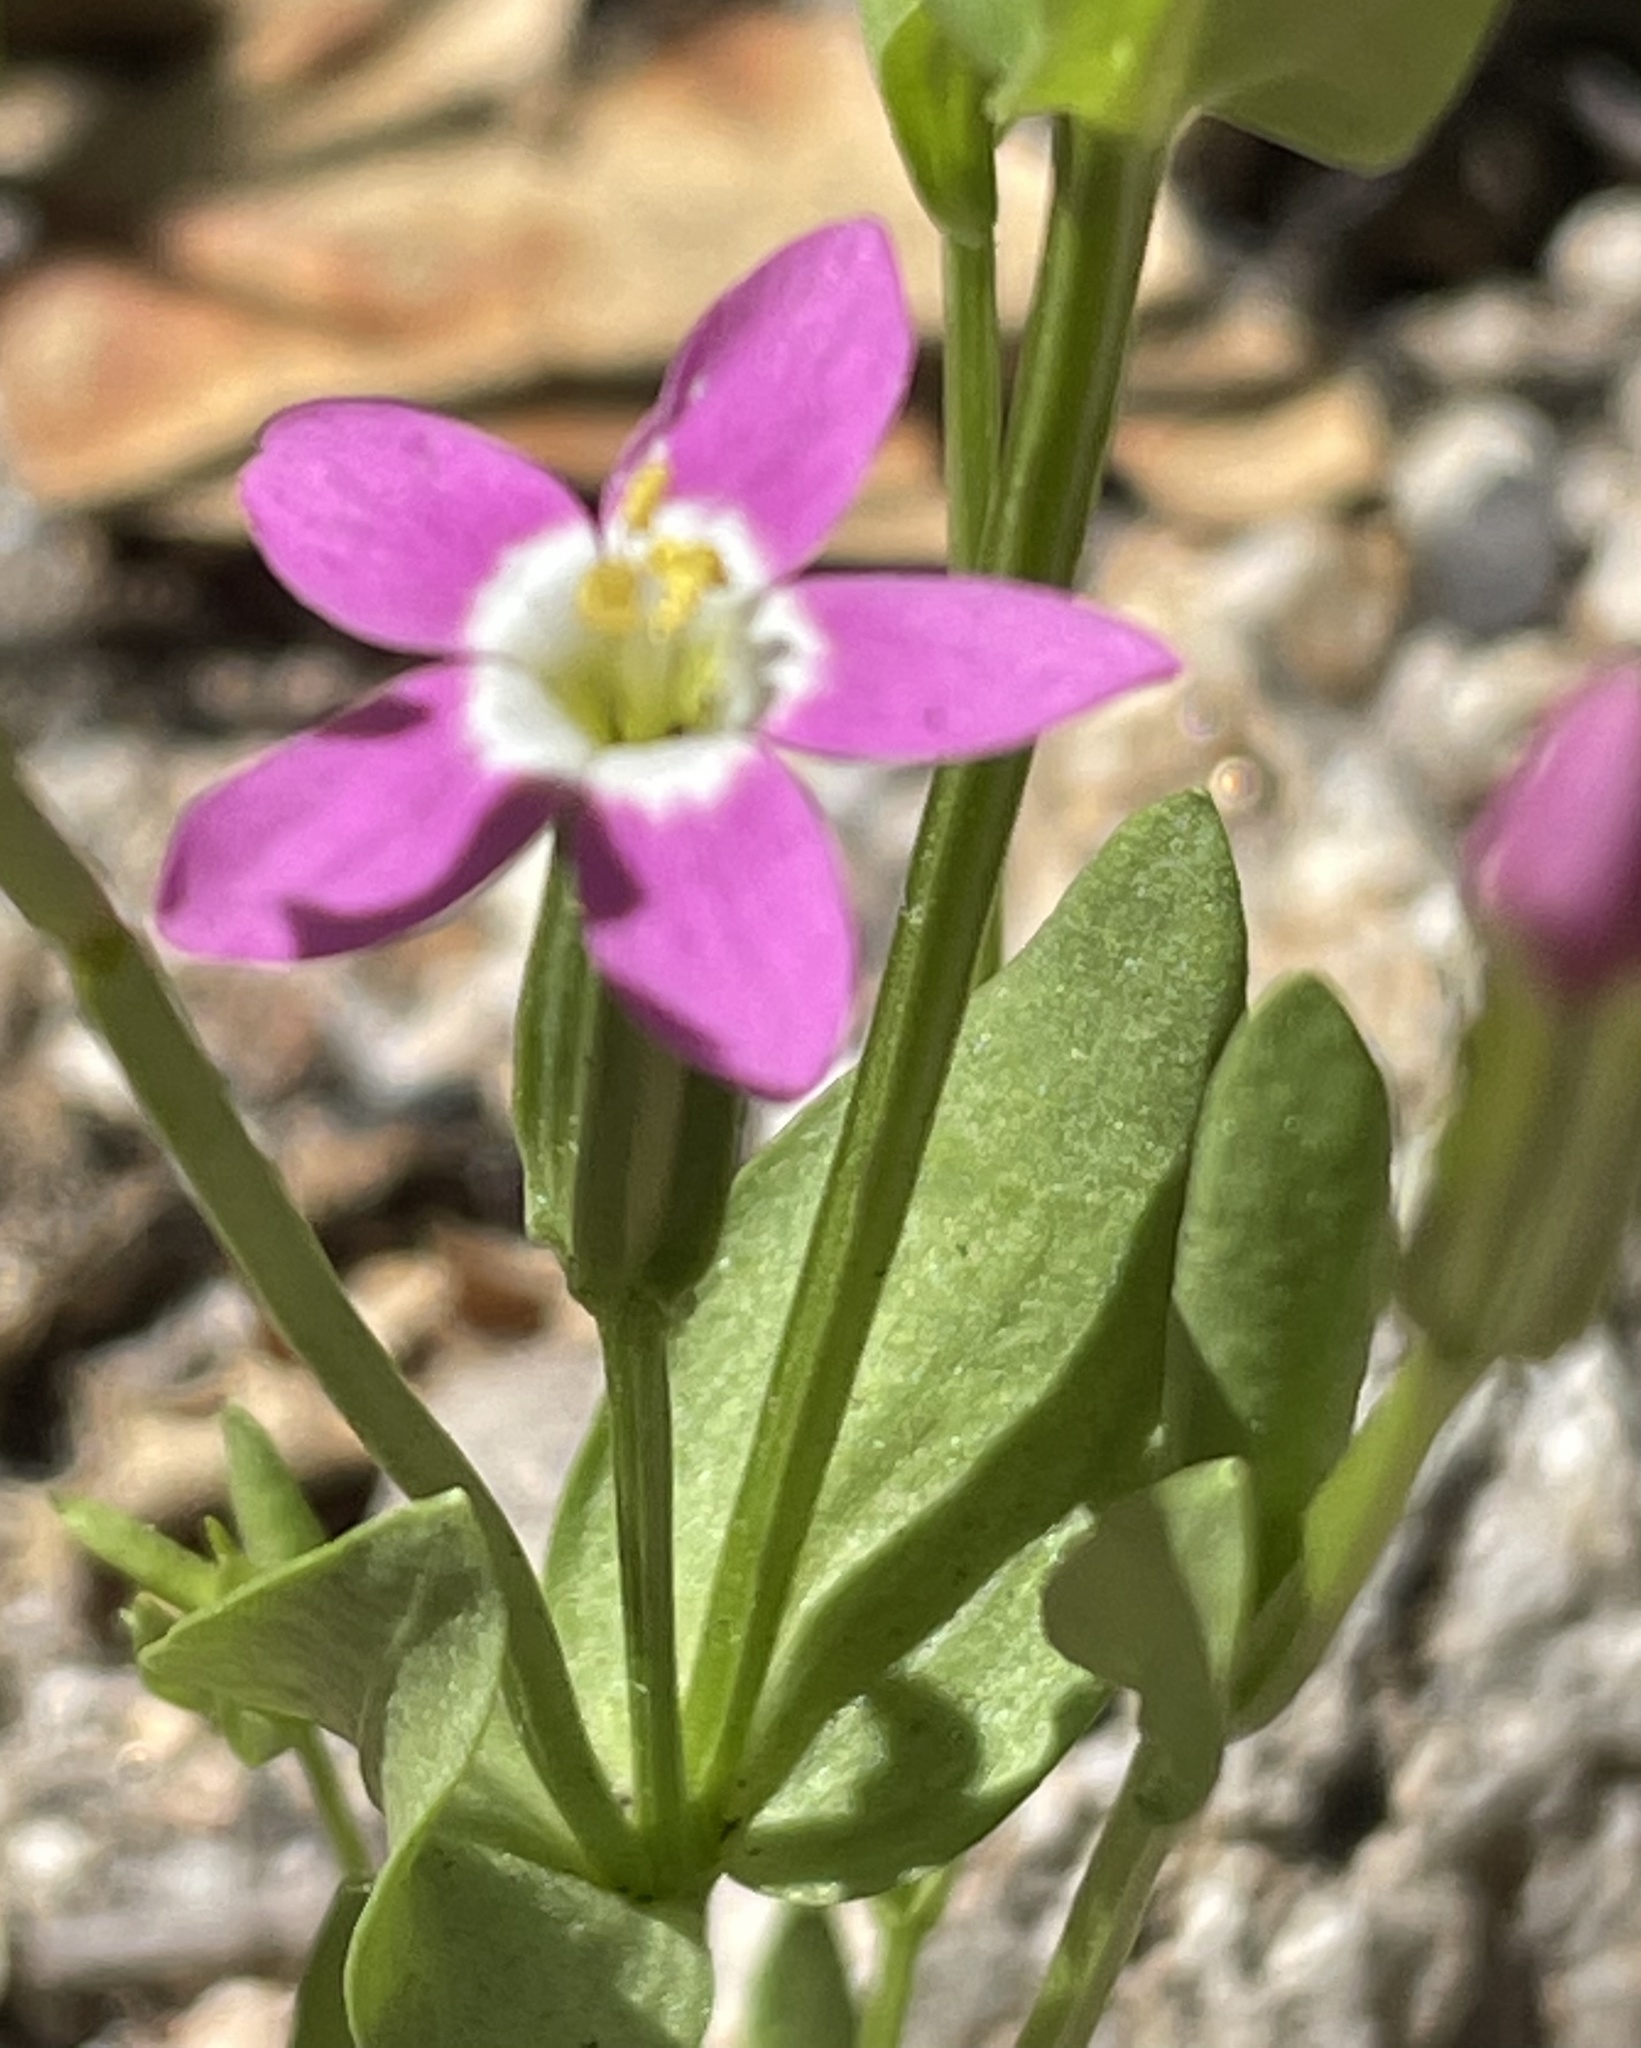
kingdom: Plantae
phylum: Tracheophyta
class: Magnoliopsida
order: Gentianales
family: Gentianaceae
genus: Zeltnera
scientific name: Zeltnera davyi
